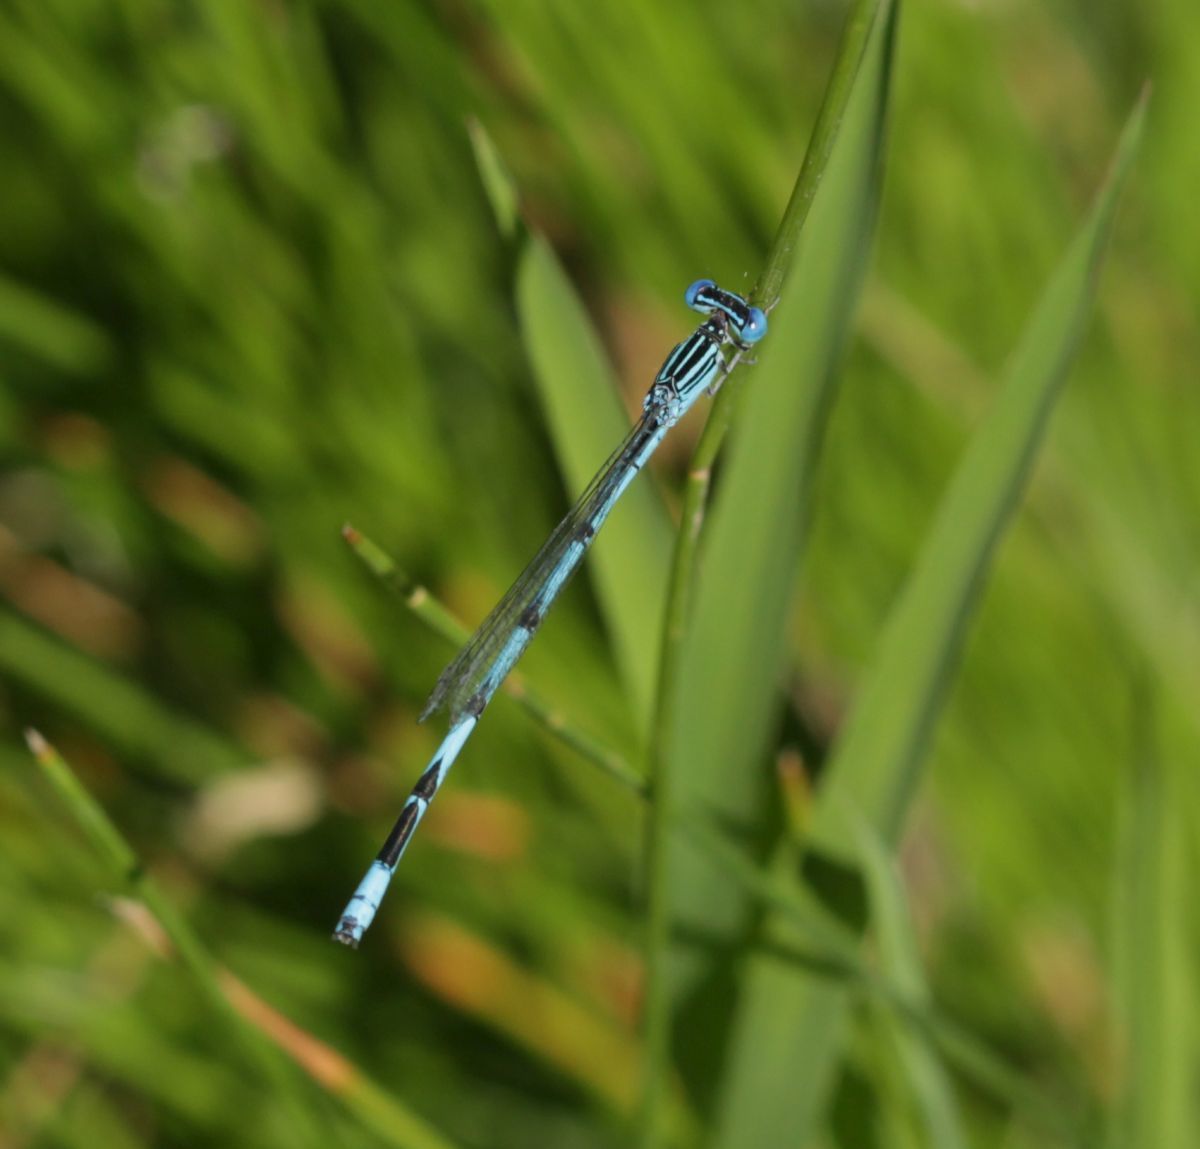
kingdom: Animalia
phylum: Arthropoda
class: Insecta
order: Odonata
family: Coenagrionidae
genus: Enallagma
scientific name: Enallagma basidens
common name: Double-striped bluet
